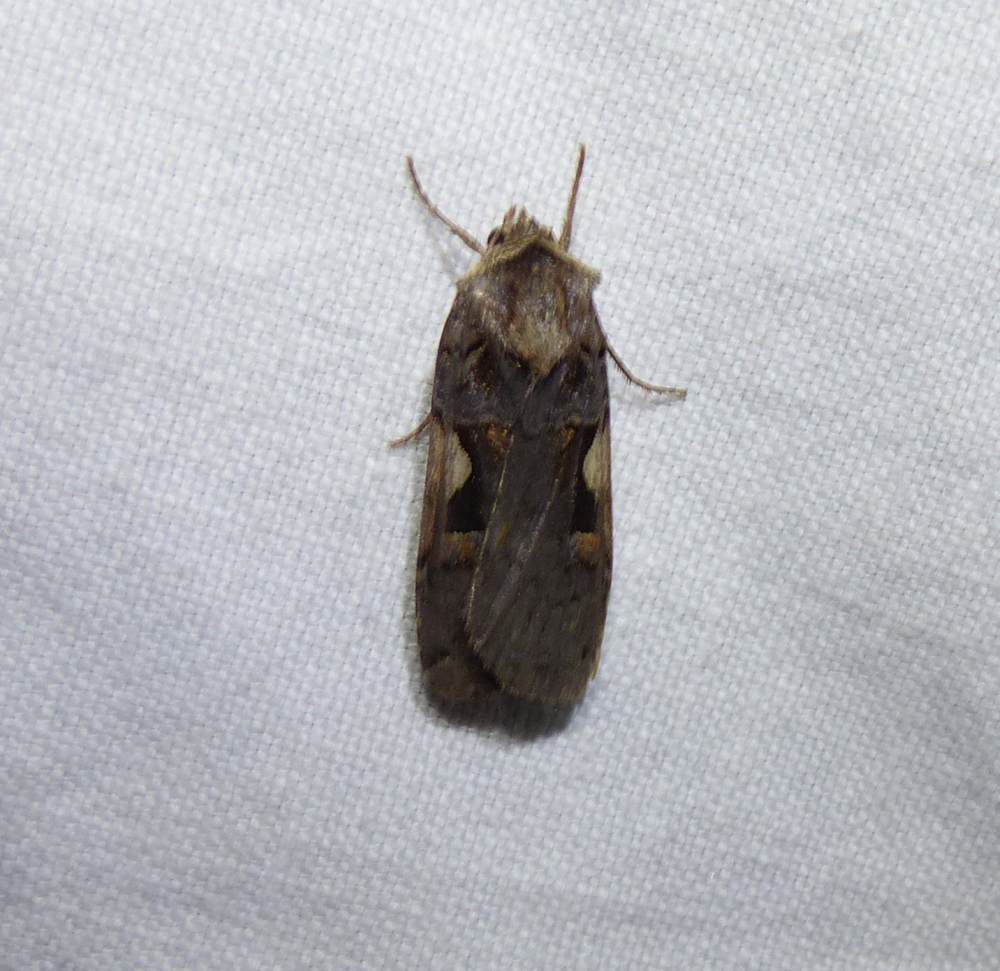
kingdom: Animalia
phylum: Arthropoda
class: Insecta
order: Lepidoptera
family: Noctuidae
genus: Xestia
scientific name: Xestia
